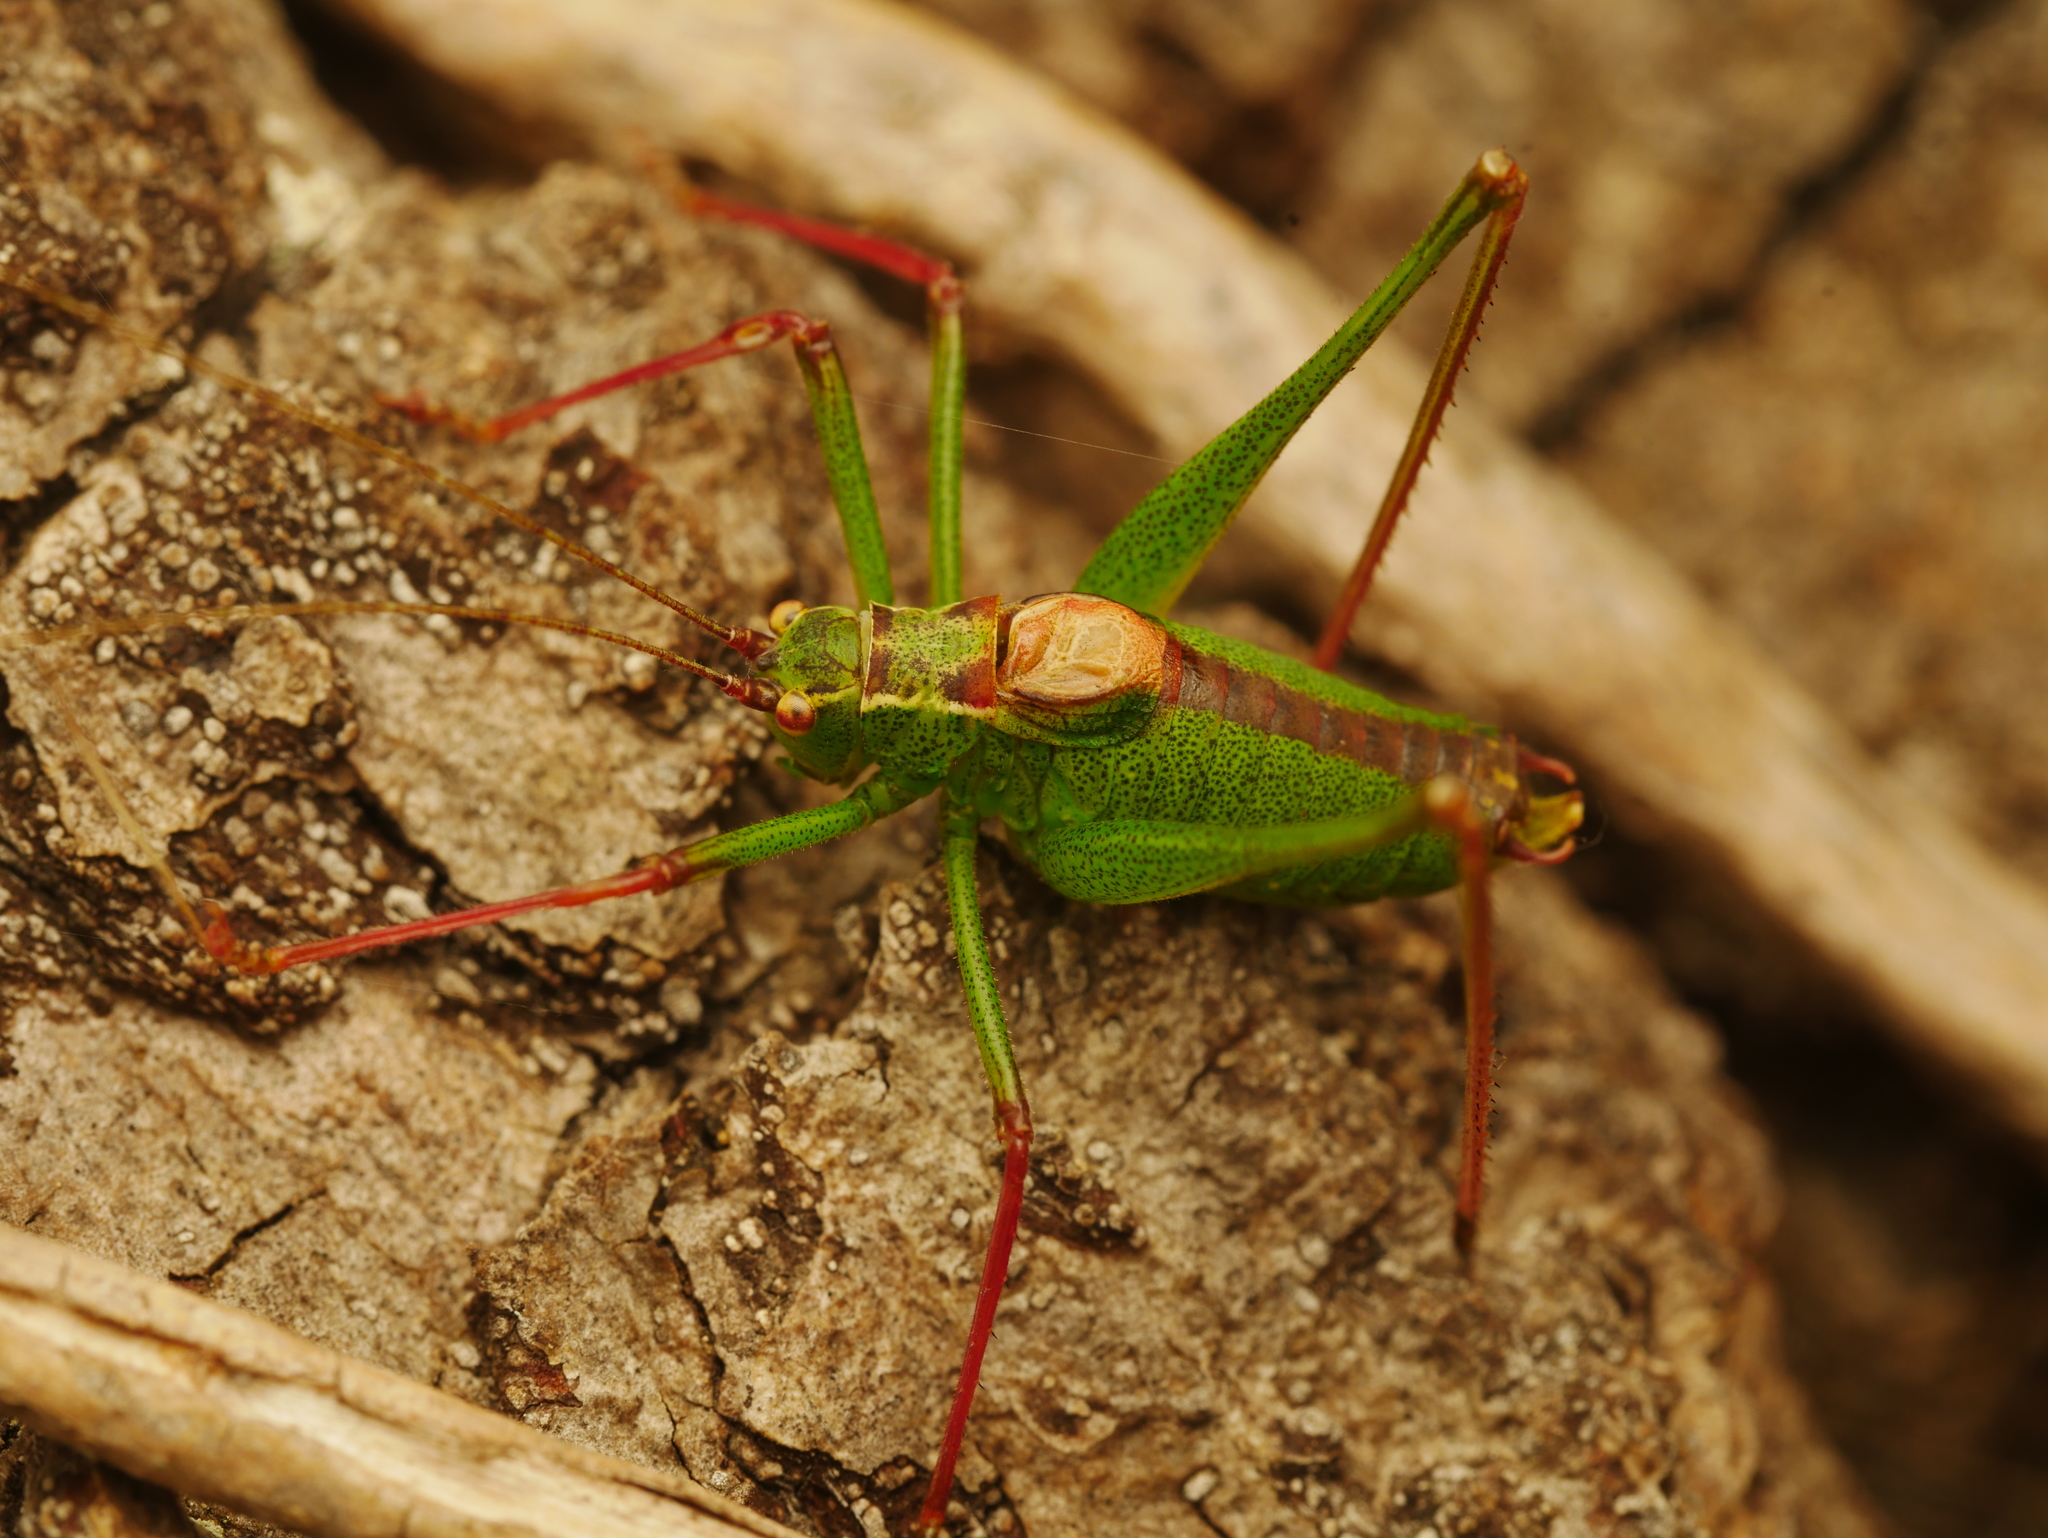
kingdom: Animalia
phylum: Arthropoda
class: Insecta
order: Orthoptera
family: Tettigoniidae
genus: Leptophyes
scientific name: Leptophyes punctatissima
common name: Speckled bush-cricket
